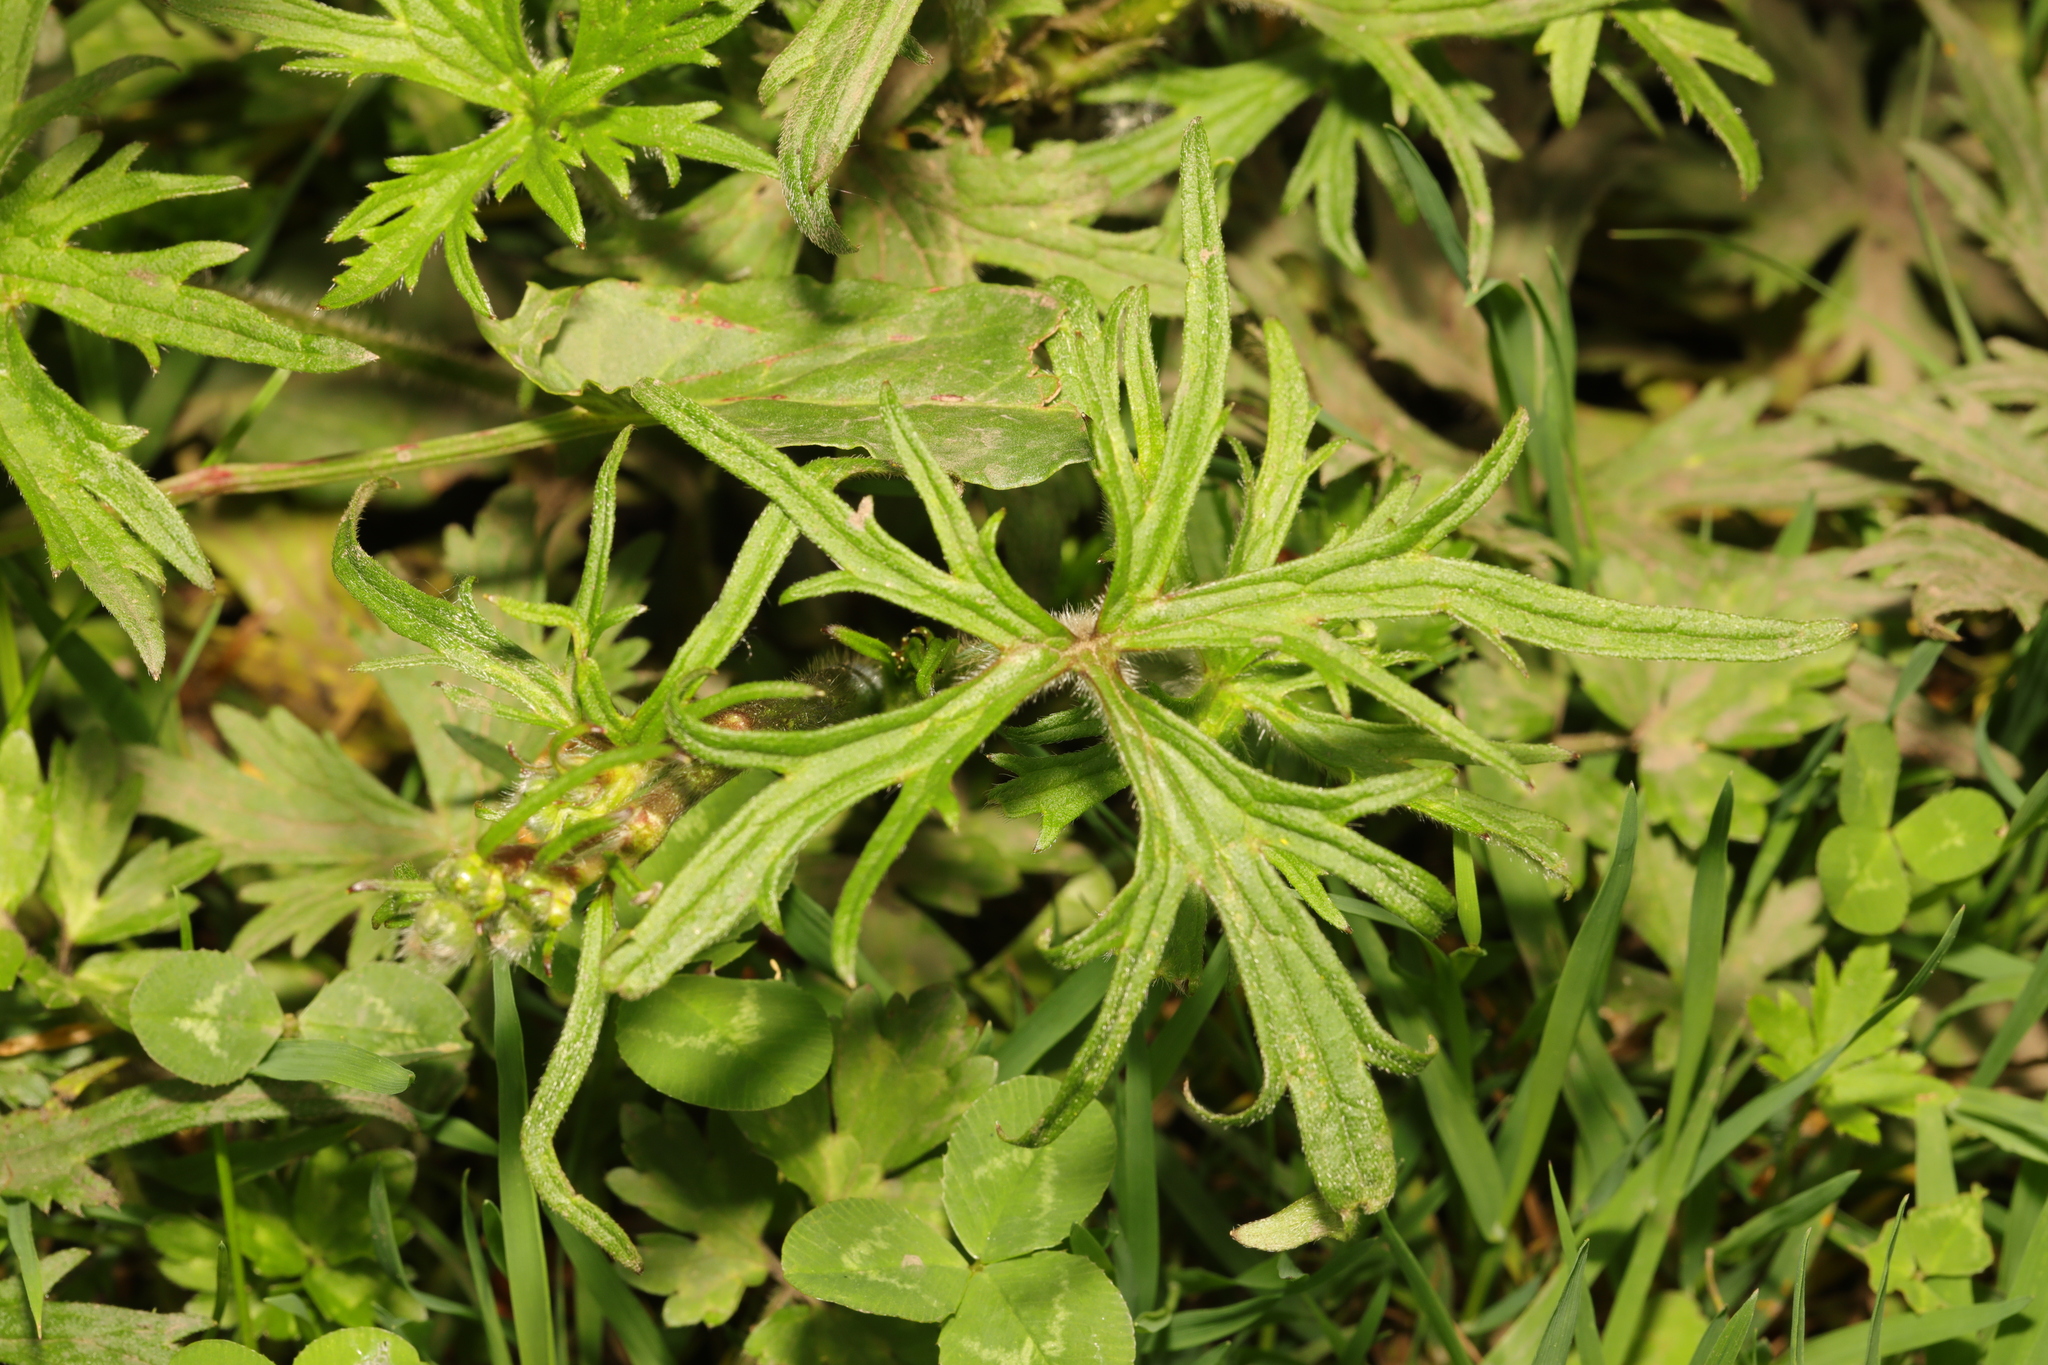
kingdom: Plantae
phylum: Tracheophyta
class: Magnoliopsida
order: Ranunculales
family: Ranunculaceae
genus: Ranunculus
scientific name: Ranunculus acris
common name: Meadow buttercup
